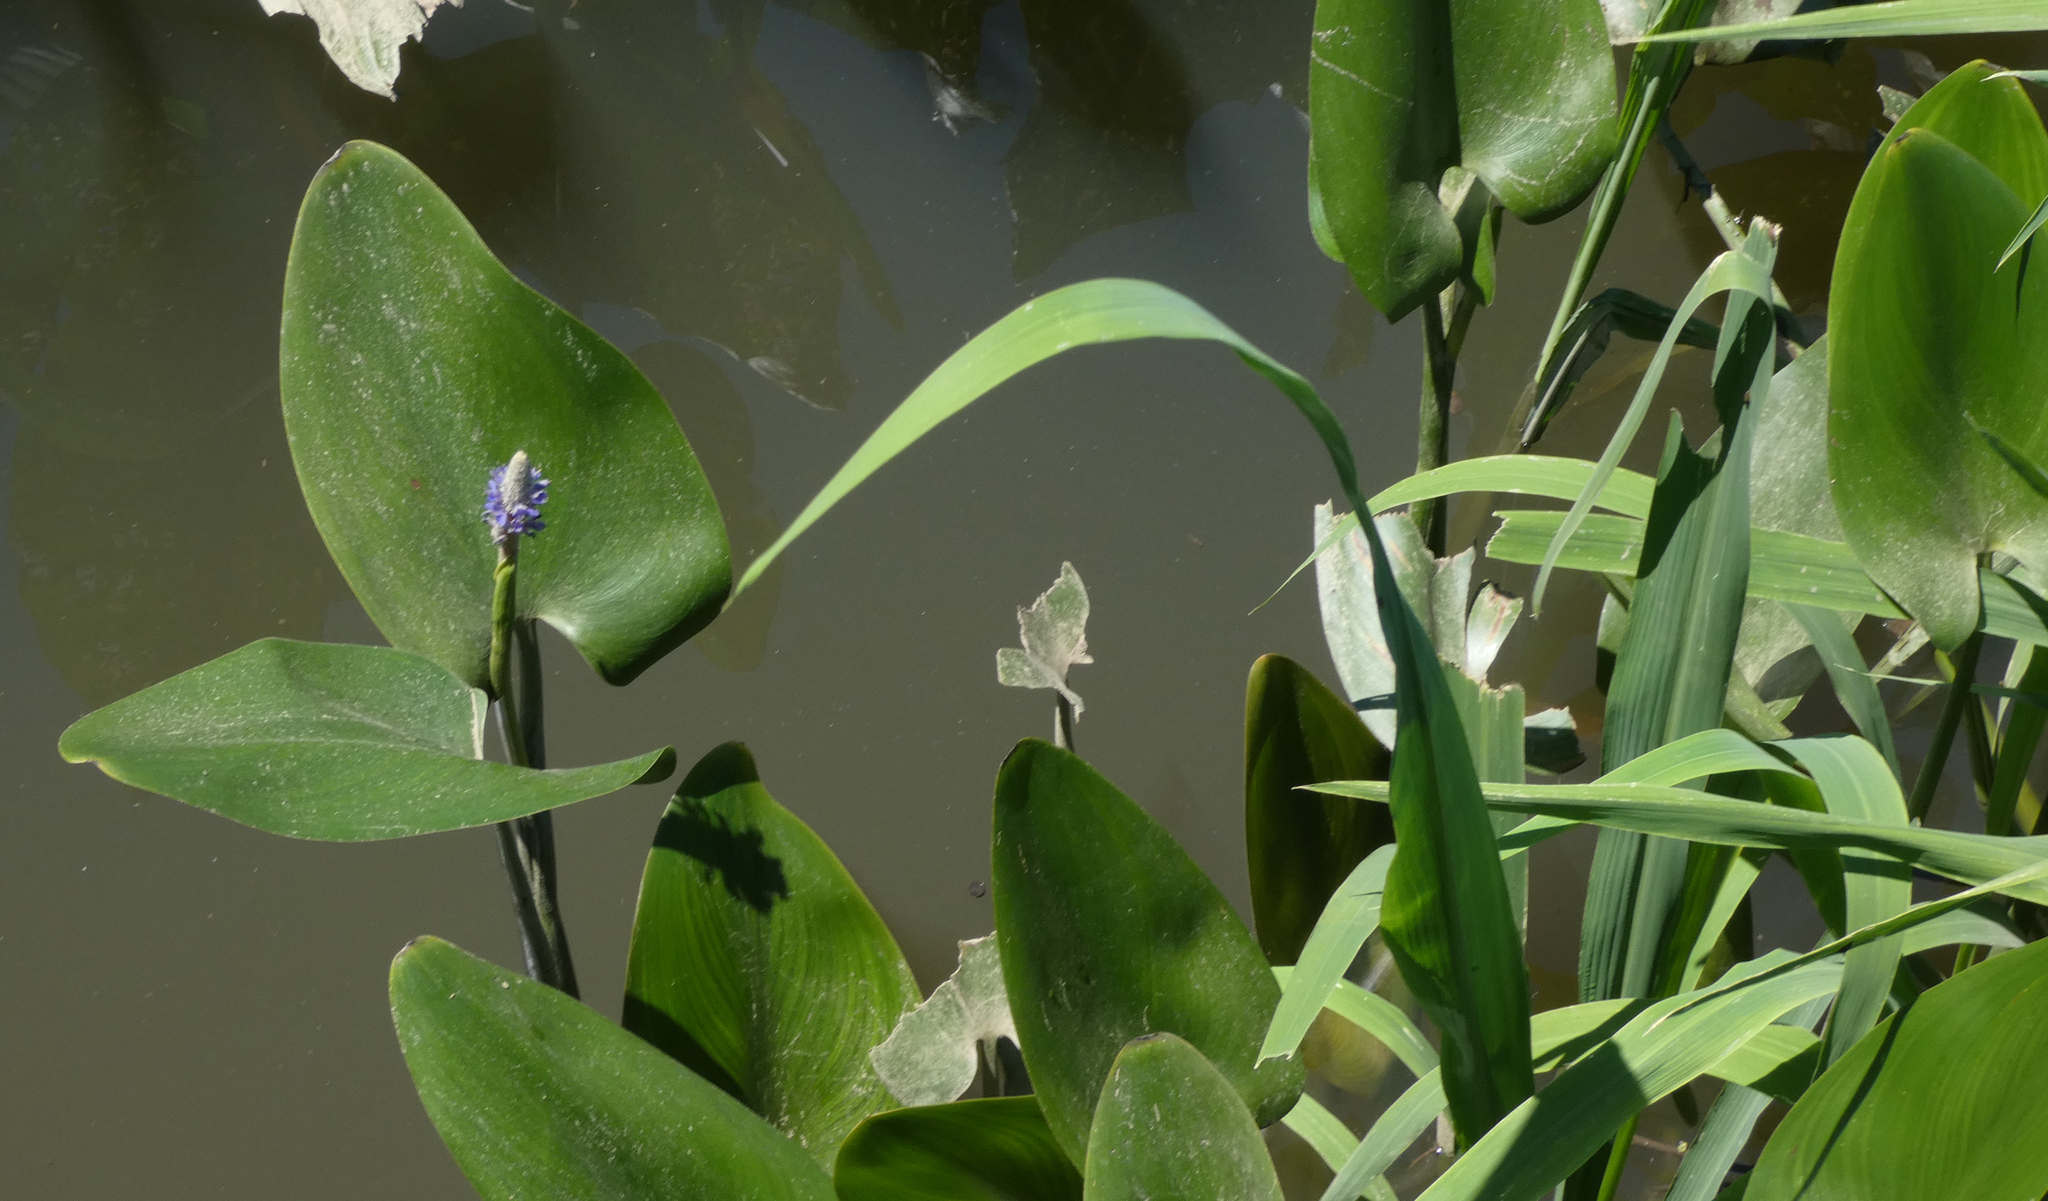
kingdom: Plantae
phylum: Tracheophyta
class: Liliopsida
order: Commelinales
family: Pontederiaceae
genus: Pontederia
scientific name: Pontederia cordata
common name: Pickerelweed
